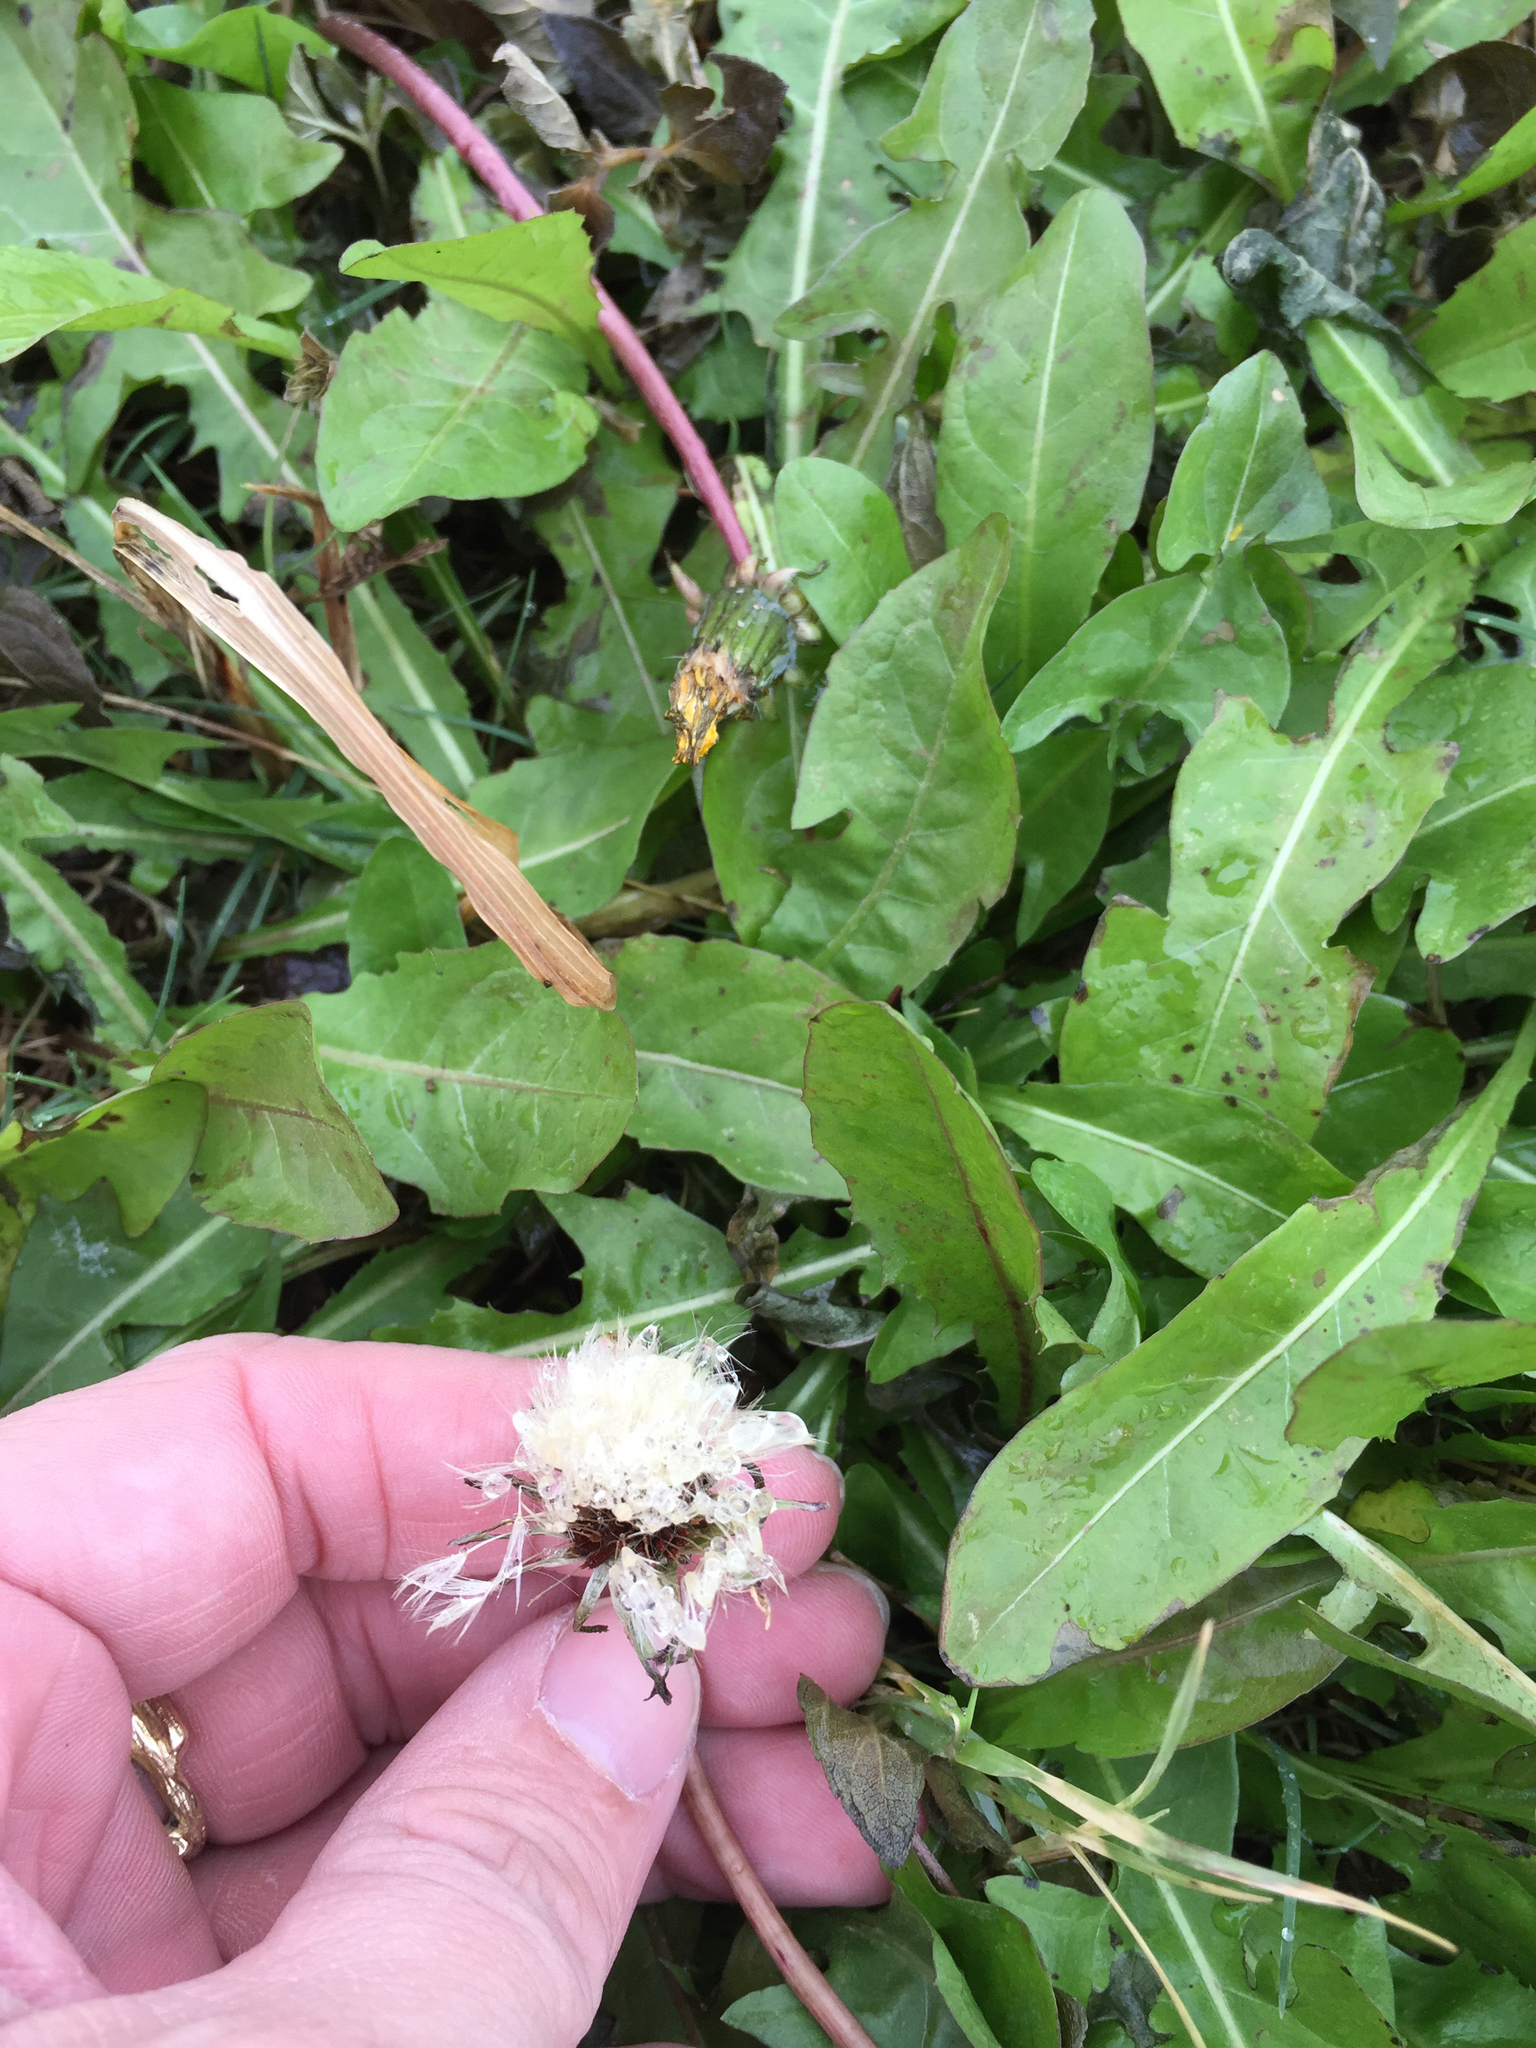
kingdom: Plantae
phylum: Tracheophyta
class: Magnoliopsida
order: Asterales
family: Asteraceae
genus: Taraxacum
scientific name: Taraxacum officinale
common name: Common dandelion
